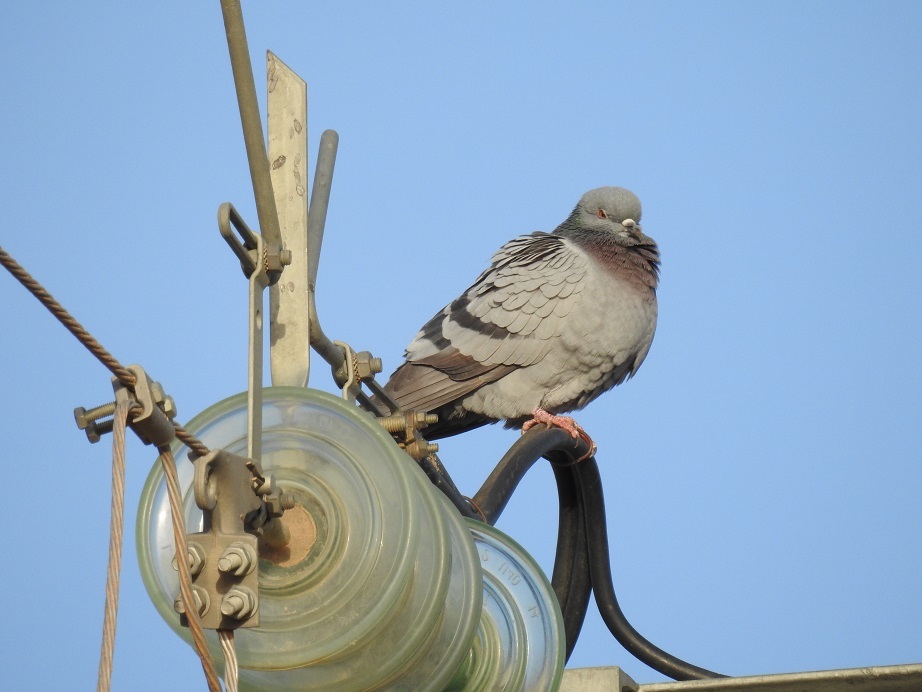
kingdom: Animalia
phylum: Chordata
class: Aves
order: Columbiformes
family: Columbidae
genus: Columba
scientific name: Columba livia
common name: Rock pigeon
